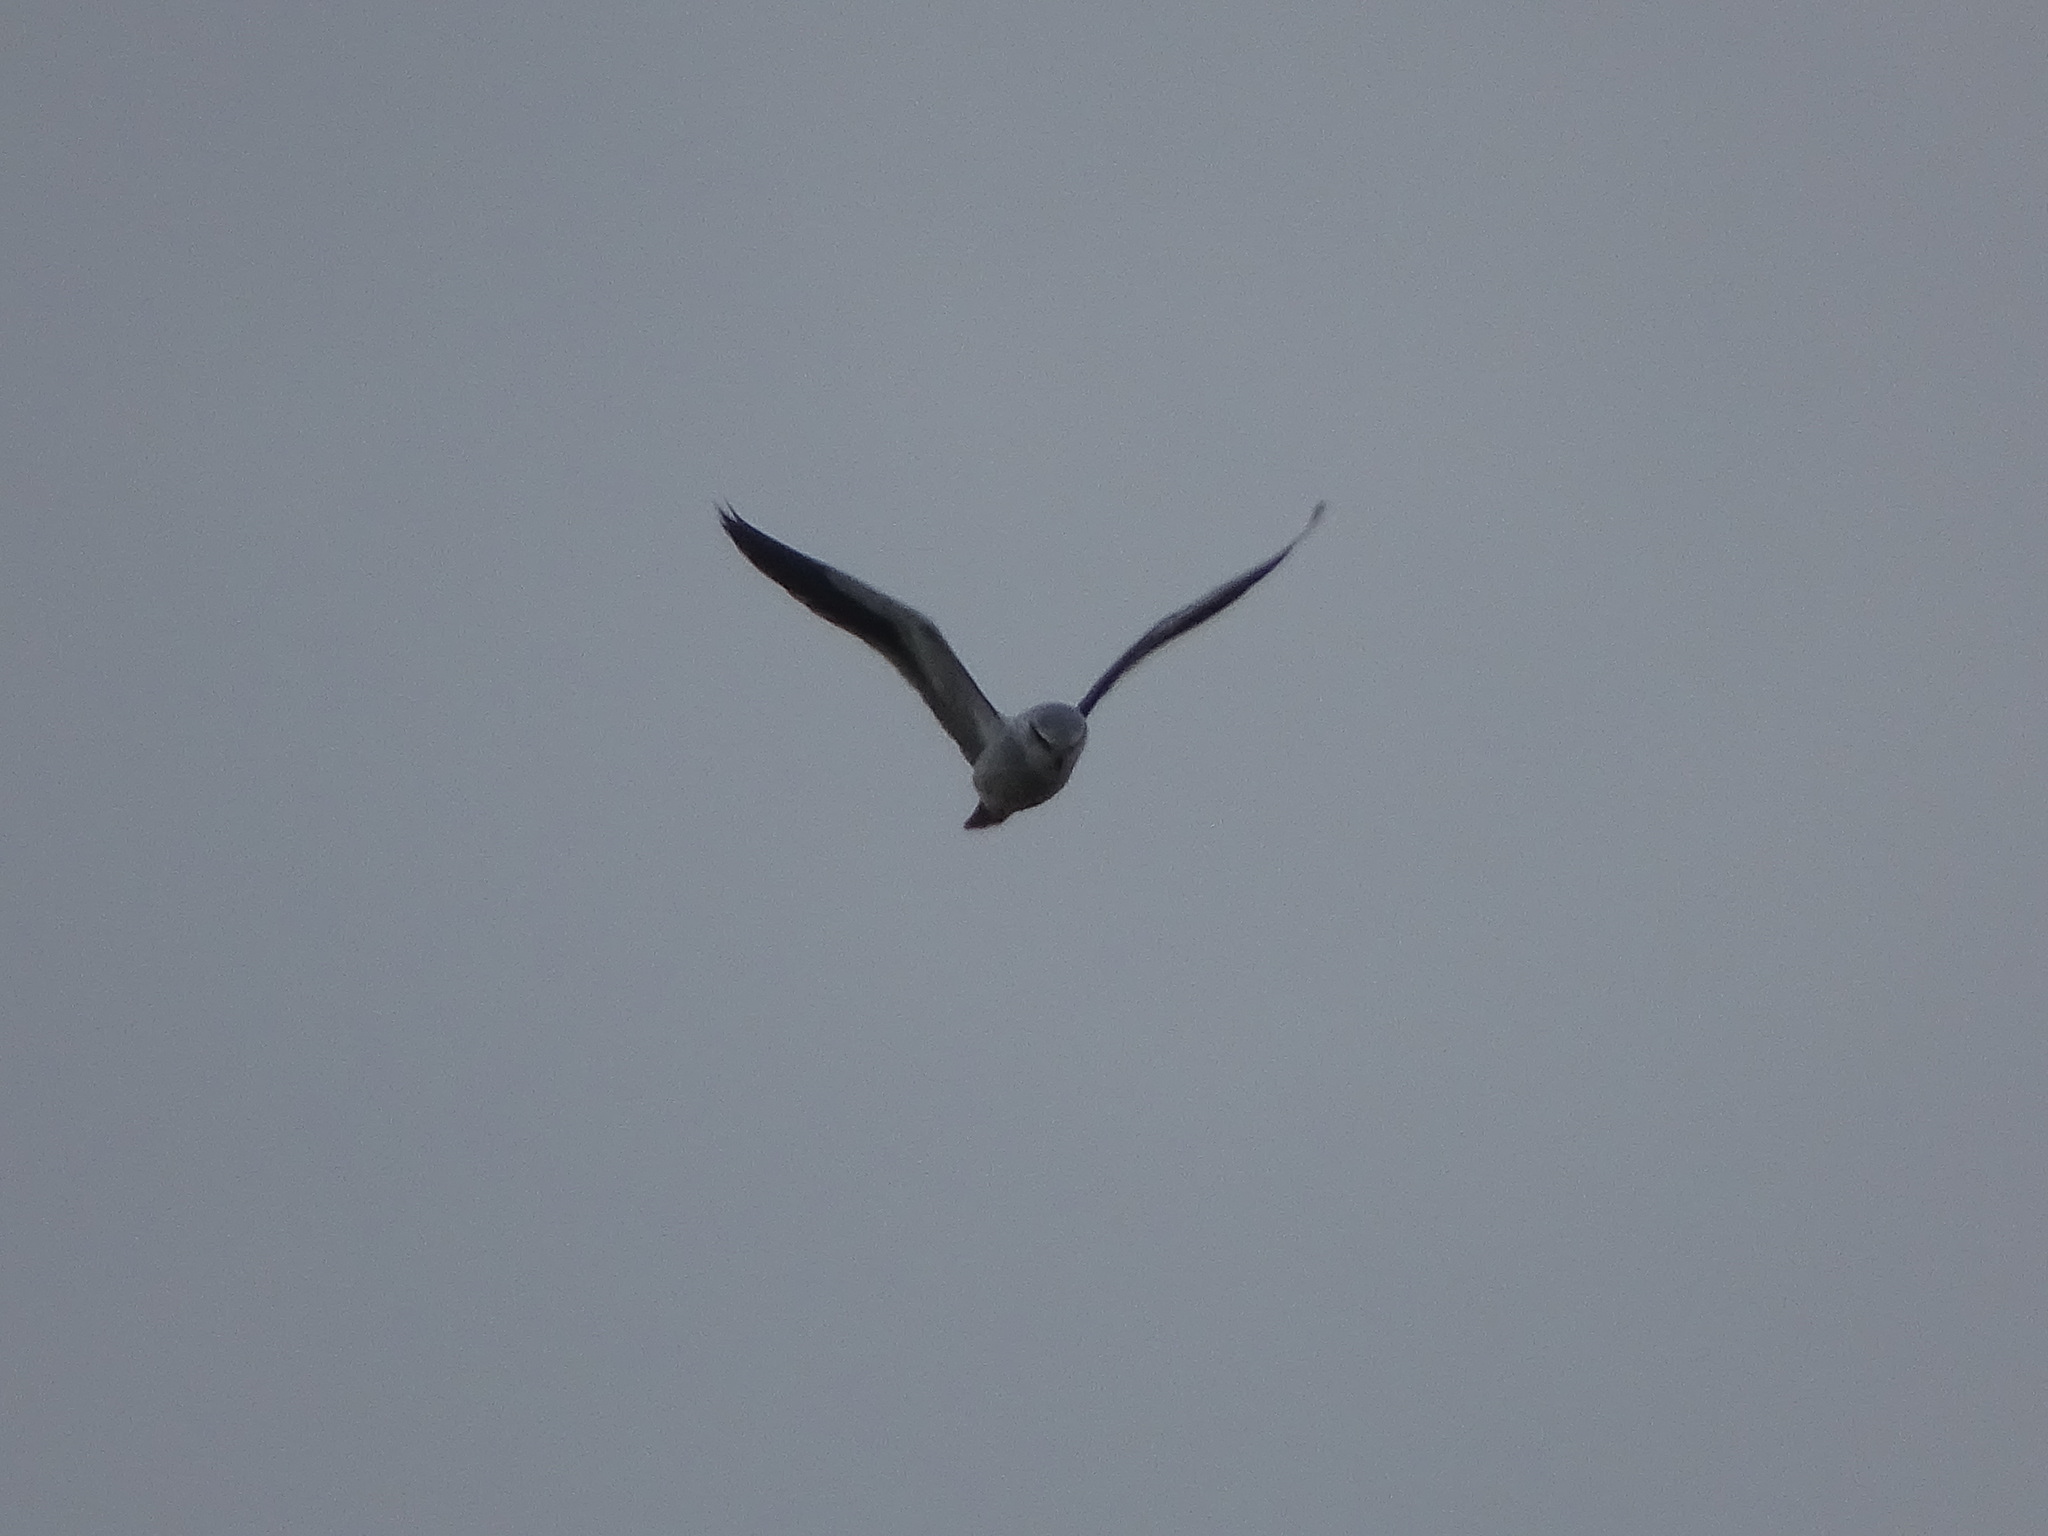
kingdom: Animalia
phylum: Chordata
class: Aves
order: Accipitriformes
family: Accipitridae
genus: Elanus
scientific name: Elanus caeruleus
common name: Black-winged kite
